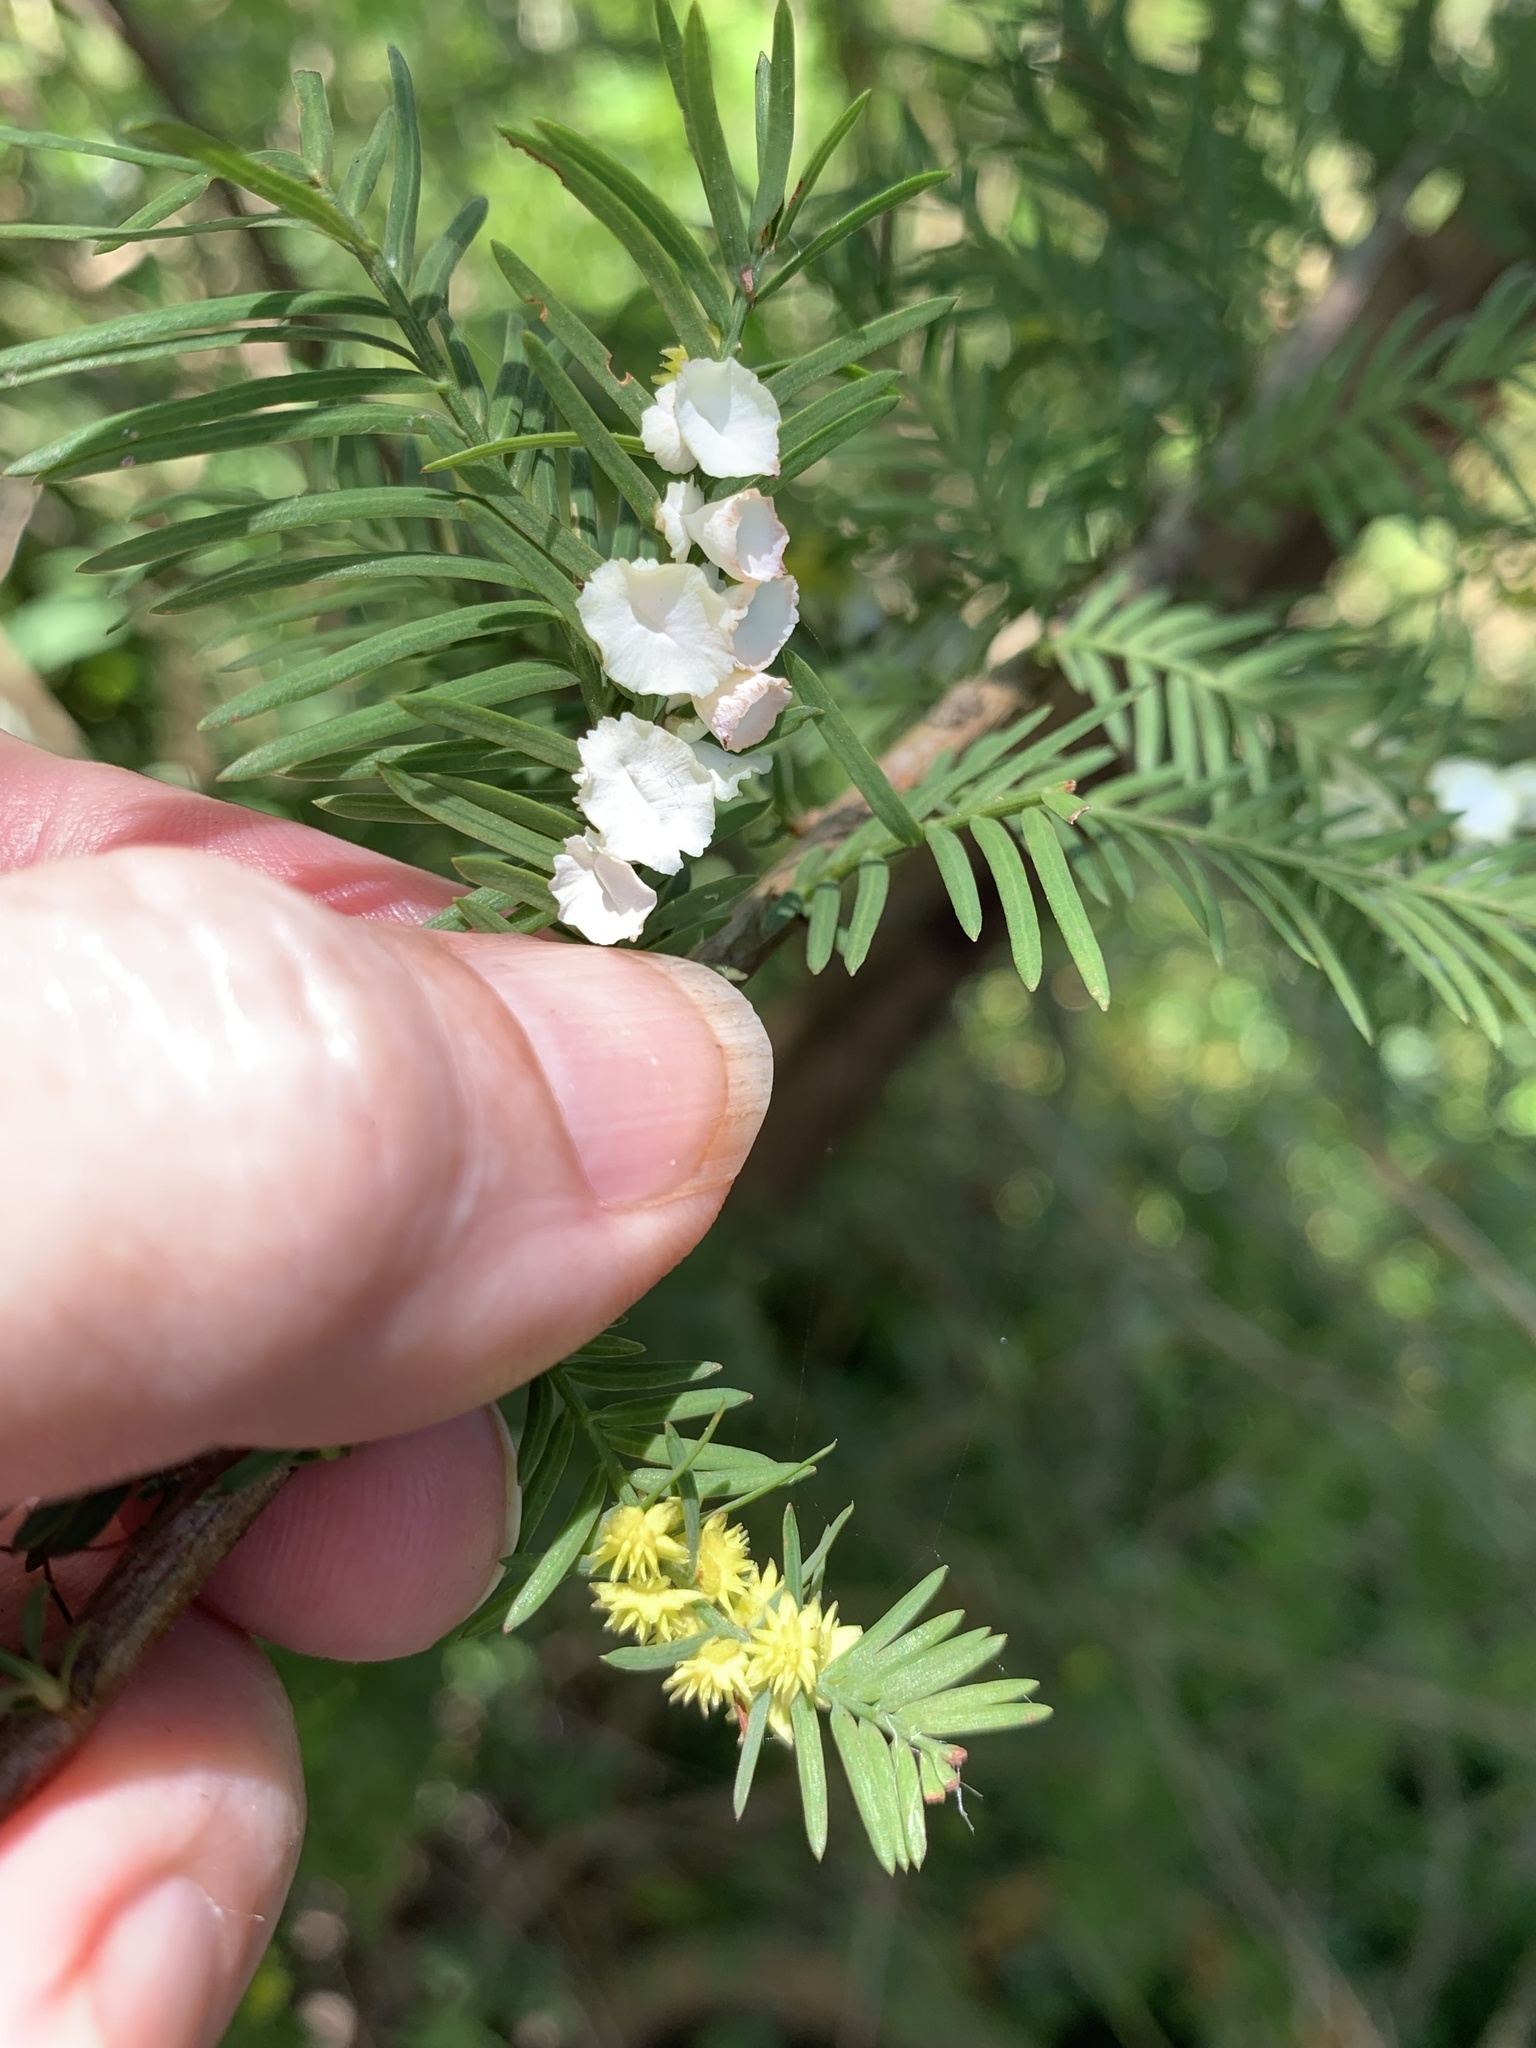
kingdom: Animalia
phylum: Arthropoda
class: Insecta
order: Diptera
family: Cecidomyiidae
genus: Taxodiomyia
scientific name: Taxodiomyia cupressi
